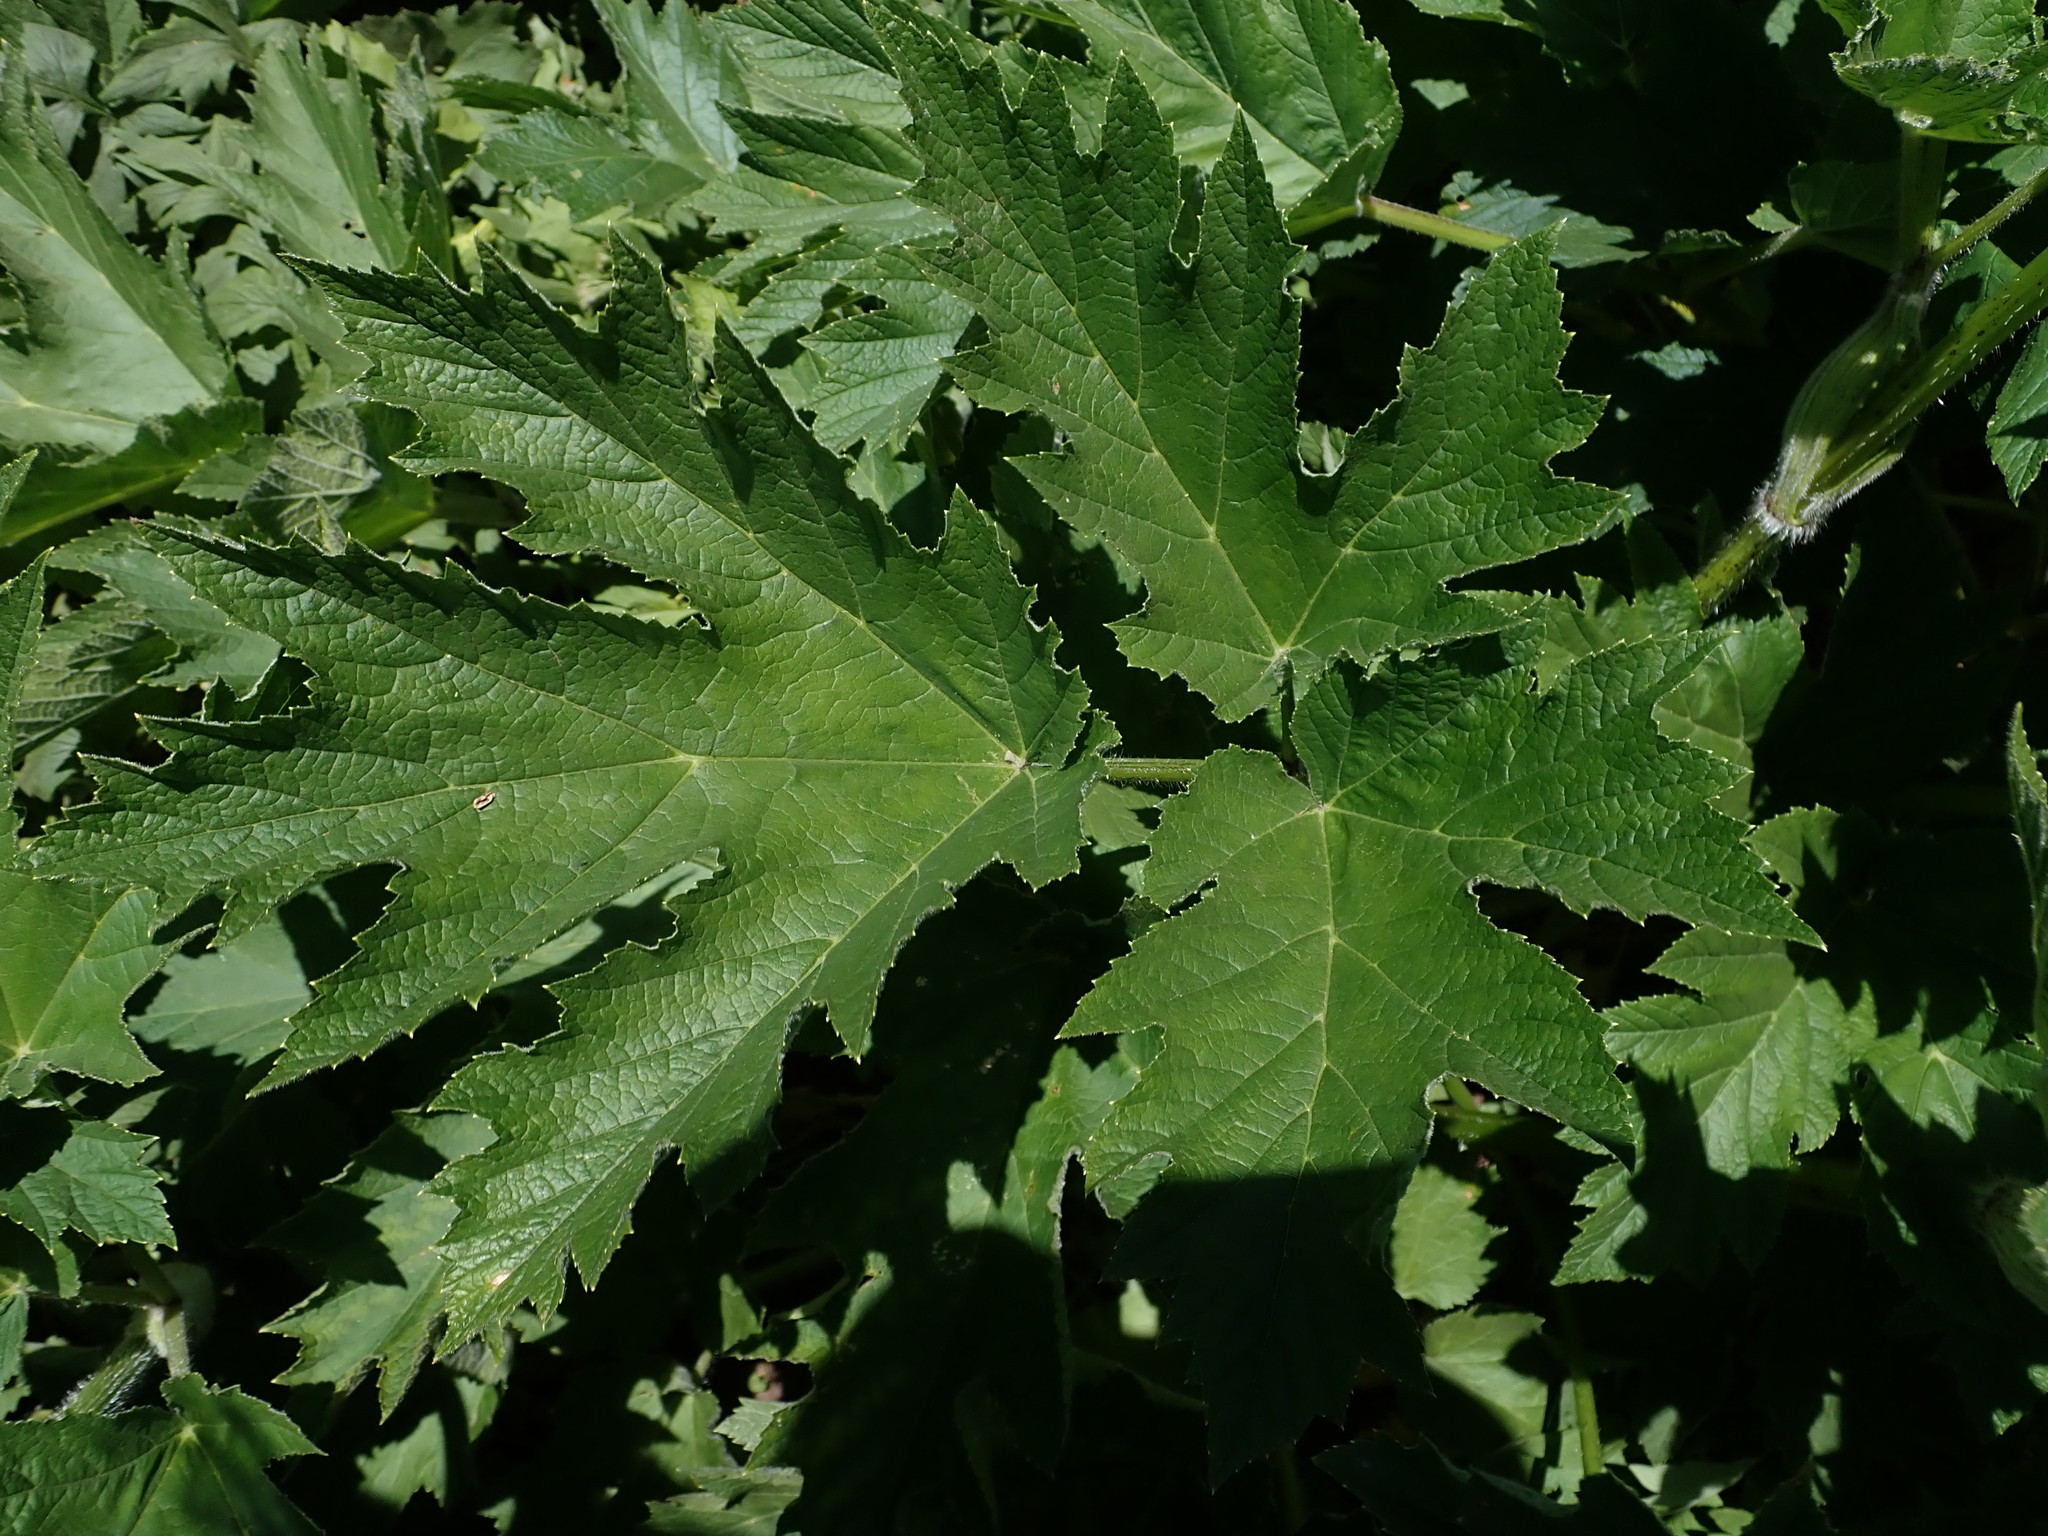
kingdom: Plantae
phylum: Tracheophyta
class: Magnoliopsida
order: Apiales
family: Apiaceae
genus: Heracleum
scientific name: Heracleum maximum
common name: American cow parsnip
